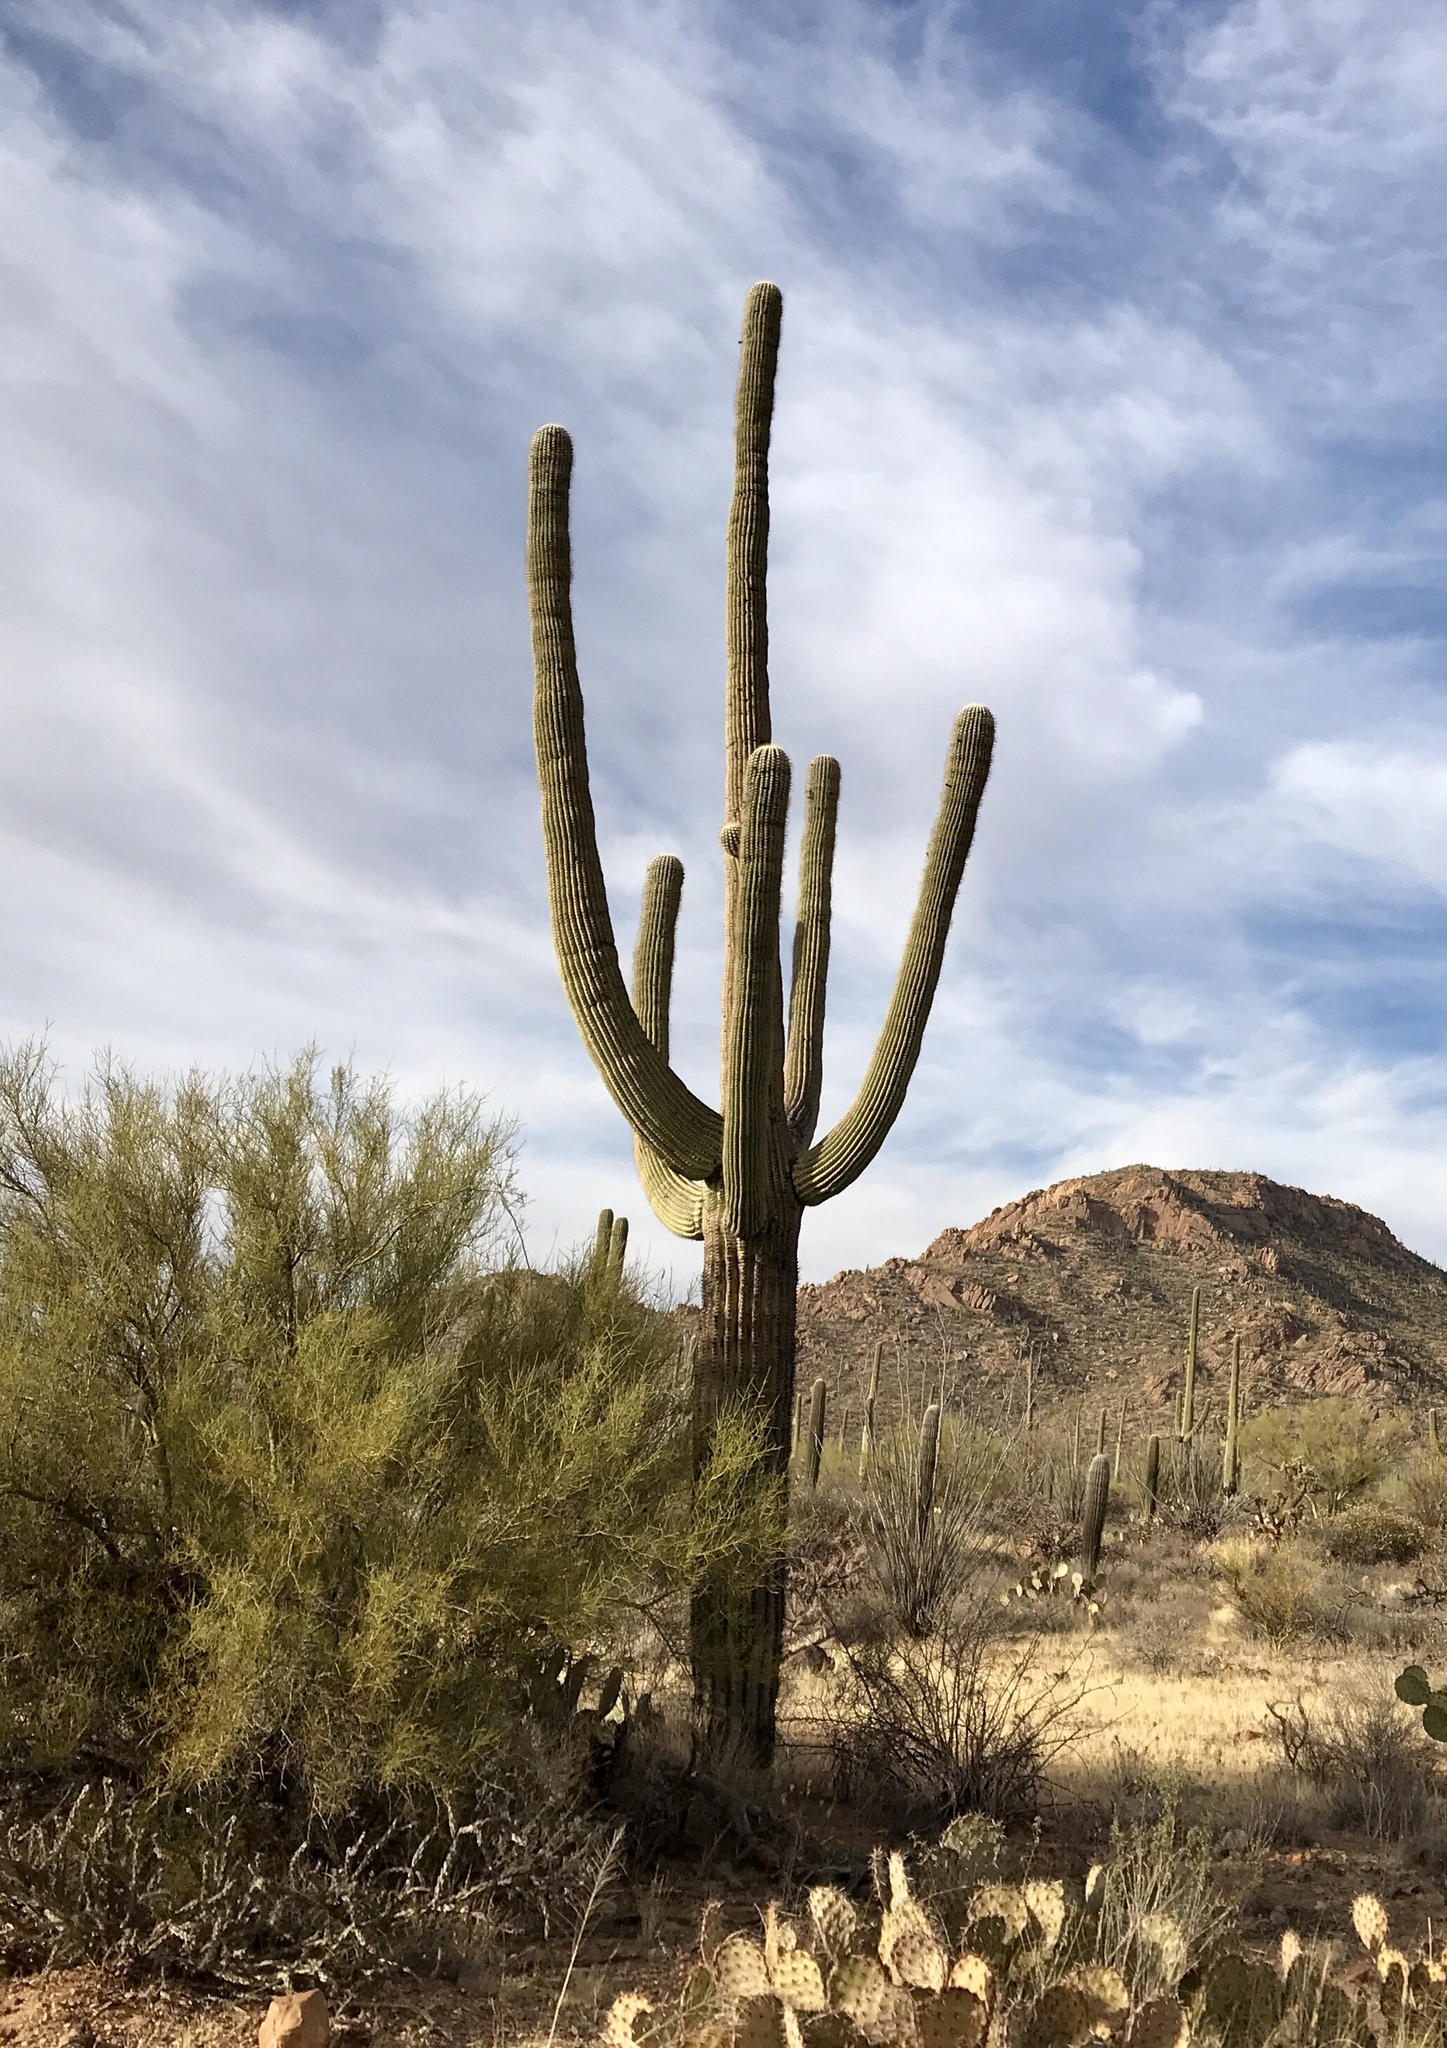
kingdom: Plantae
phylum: Tracheophyta
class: Magnoliopsida
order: Caryophyllales
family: Cactaceae
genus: Carnegiea
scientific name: Carnegiea gigantea
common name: Saguaro
